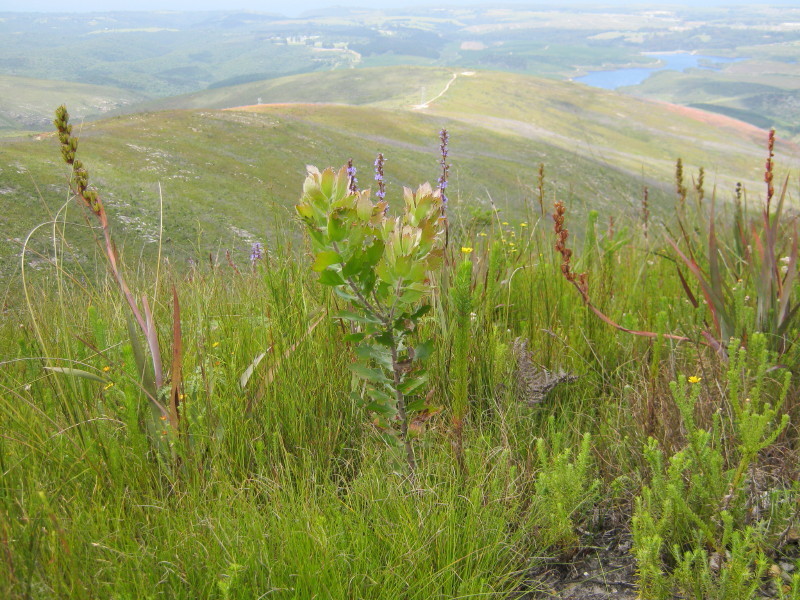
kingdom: Plantae
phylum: Tracheophyta
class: Magnoliopsida
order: Proteales
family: Proteaceae
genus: Leucospermum
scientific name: Leucospermum glabrum
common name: Outeniqua pincushion
